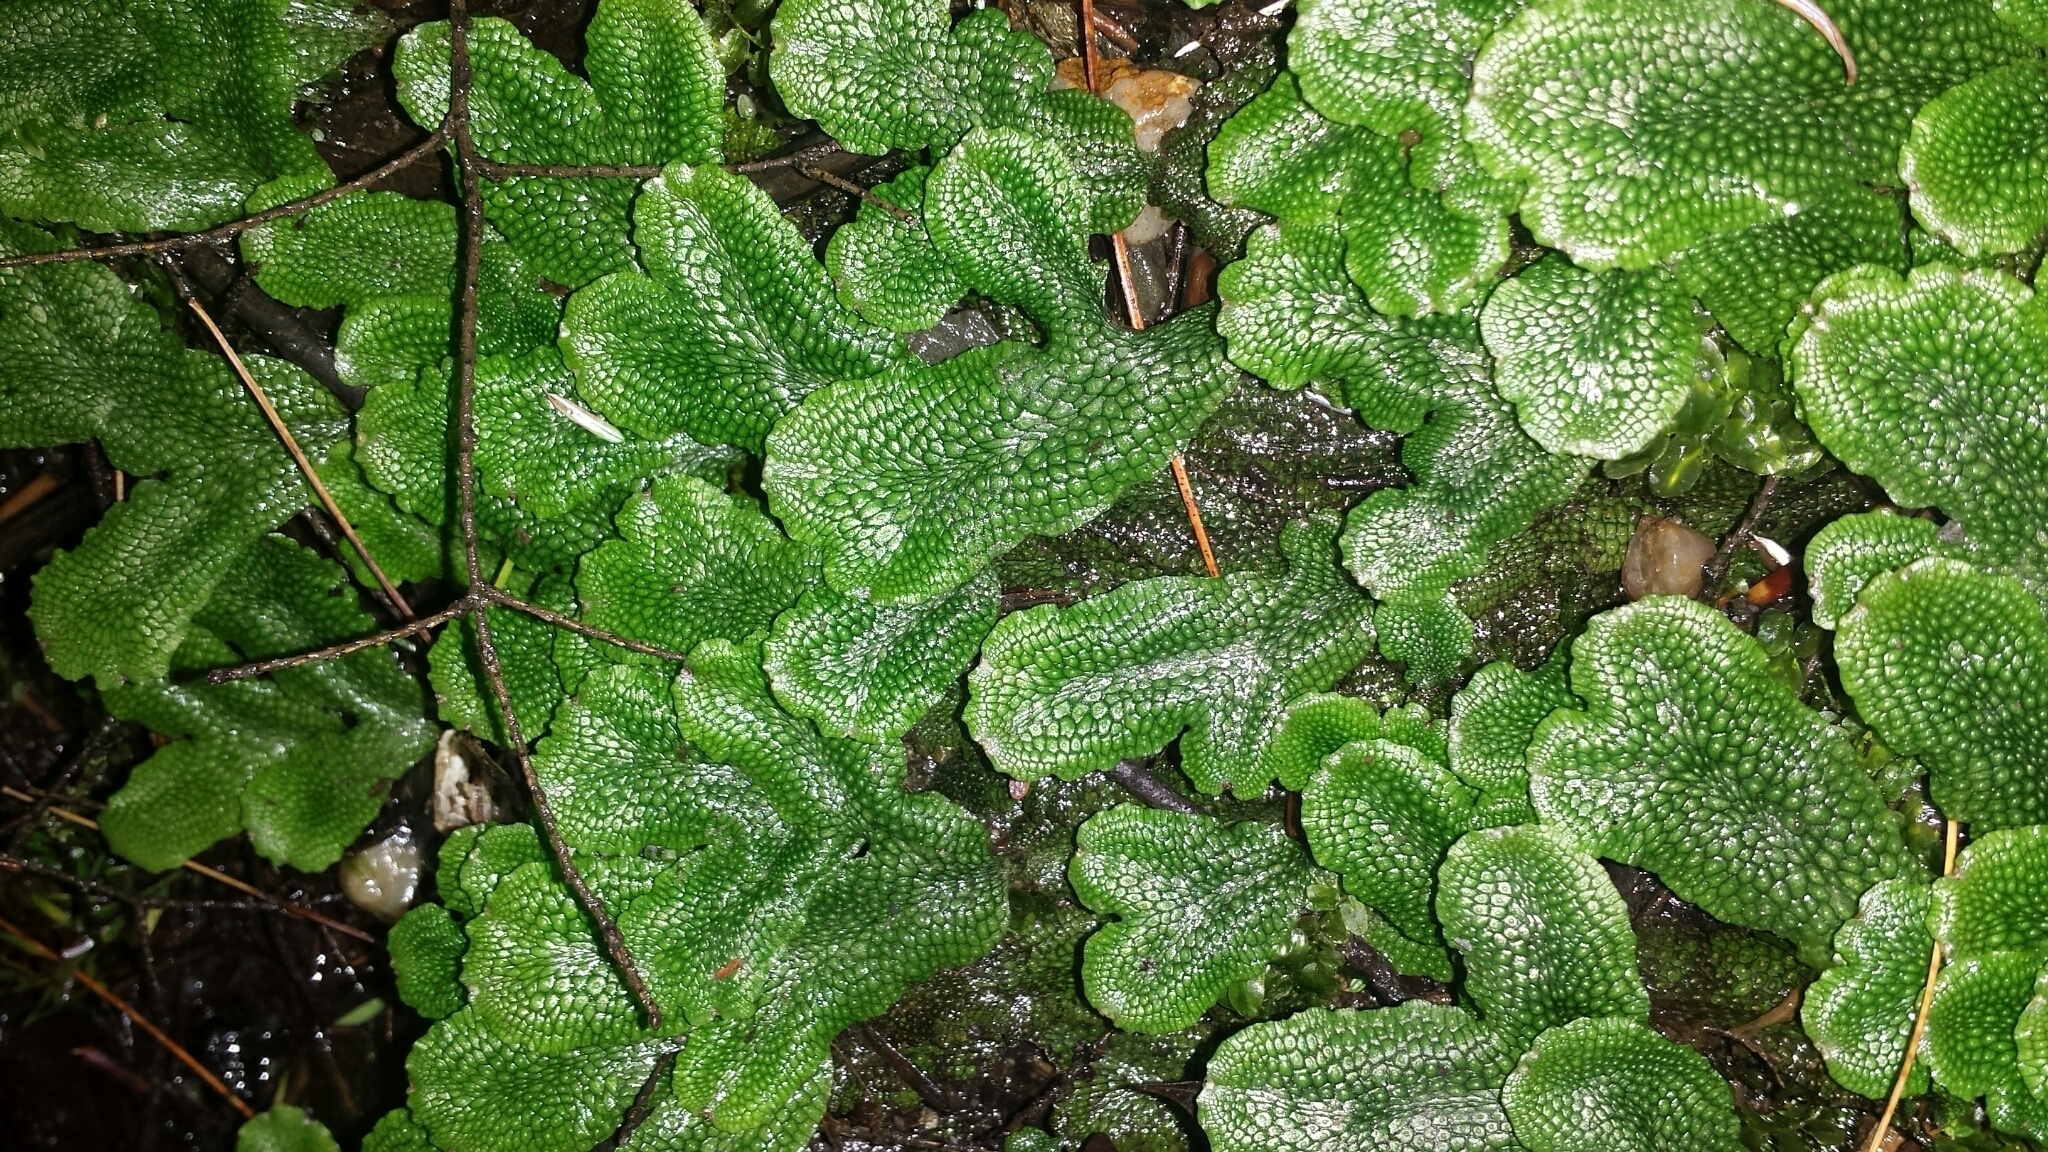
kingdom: Plantae
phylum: Marchantiophyta
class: Marchantiopsida
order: Marchantiales
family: Conocephalaceae
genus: Conocephalum
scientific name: Conocephalum salebrosum
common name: Cat-tongue liverwort
